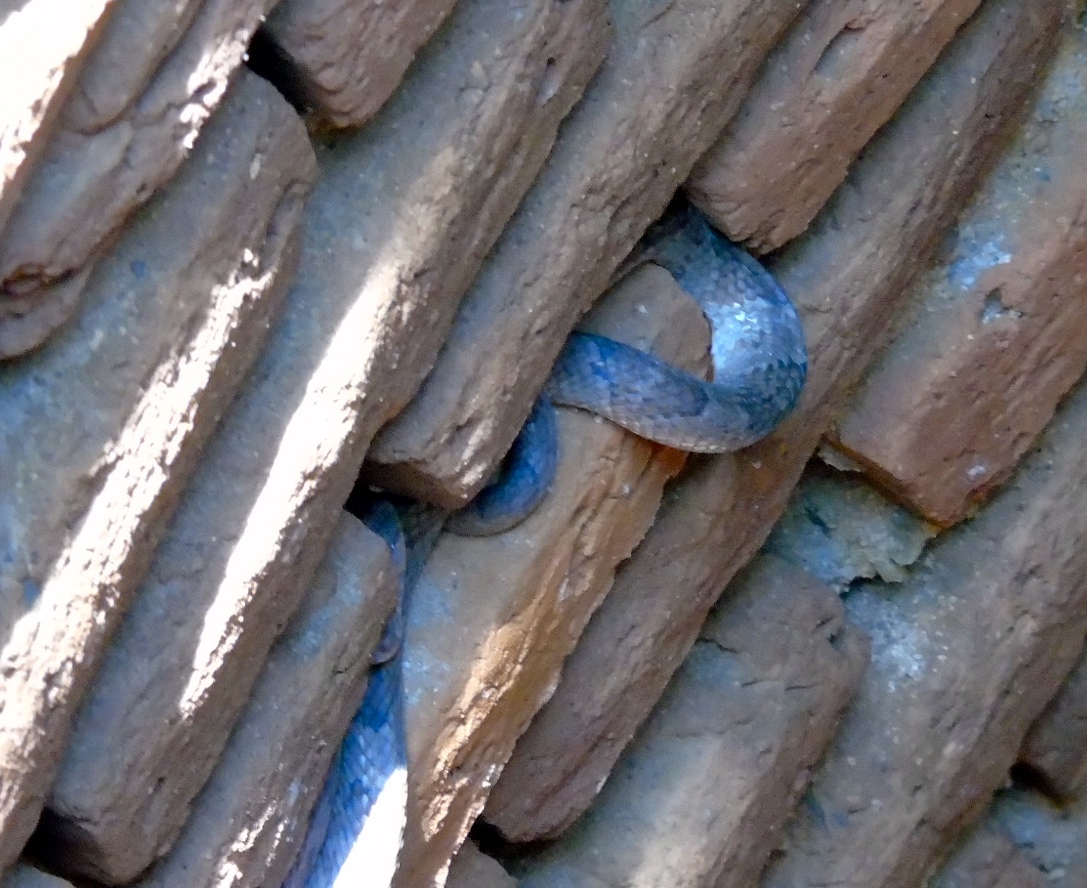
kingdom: Animalia
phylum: Chordata
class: Squamata
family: Colubridae
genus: Trimorphodon
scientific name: Trimorphodon paucimaculatus
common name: Sinaloan lyresnake
